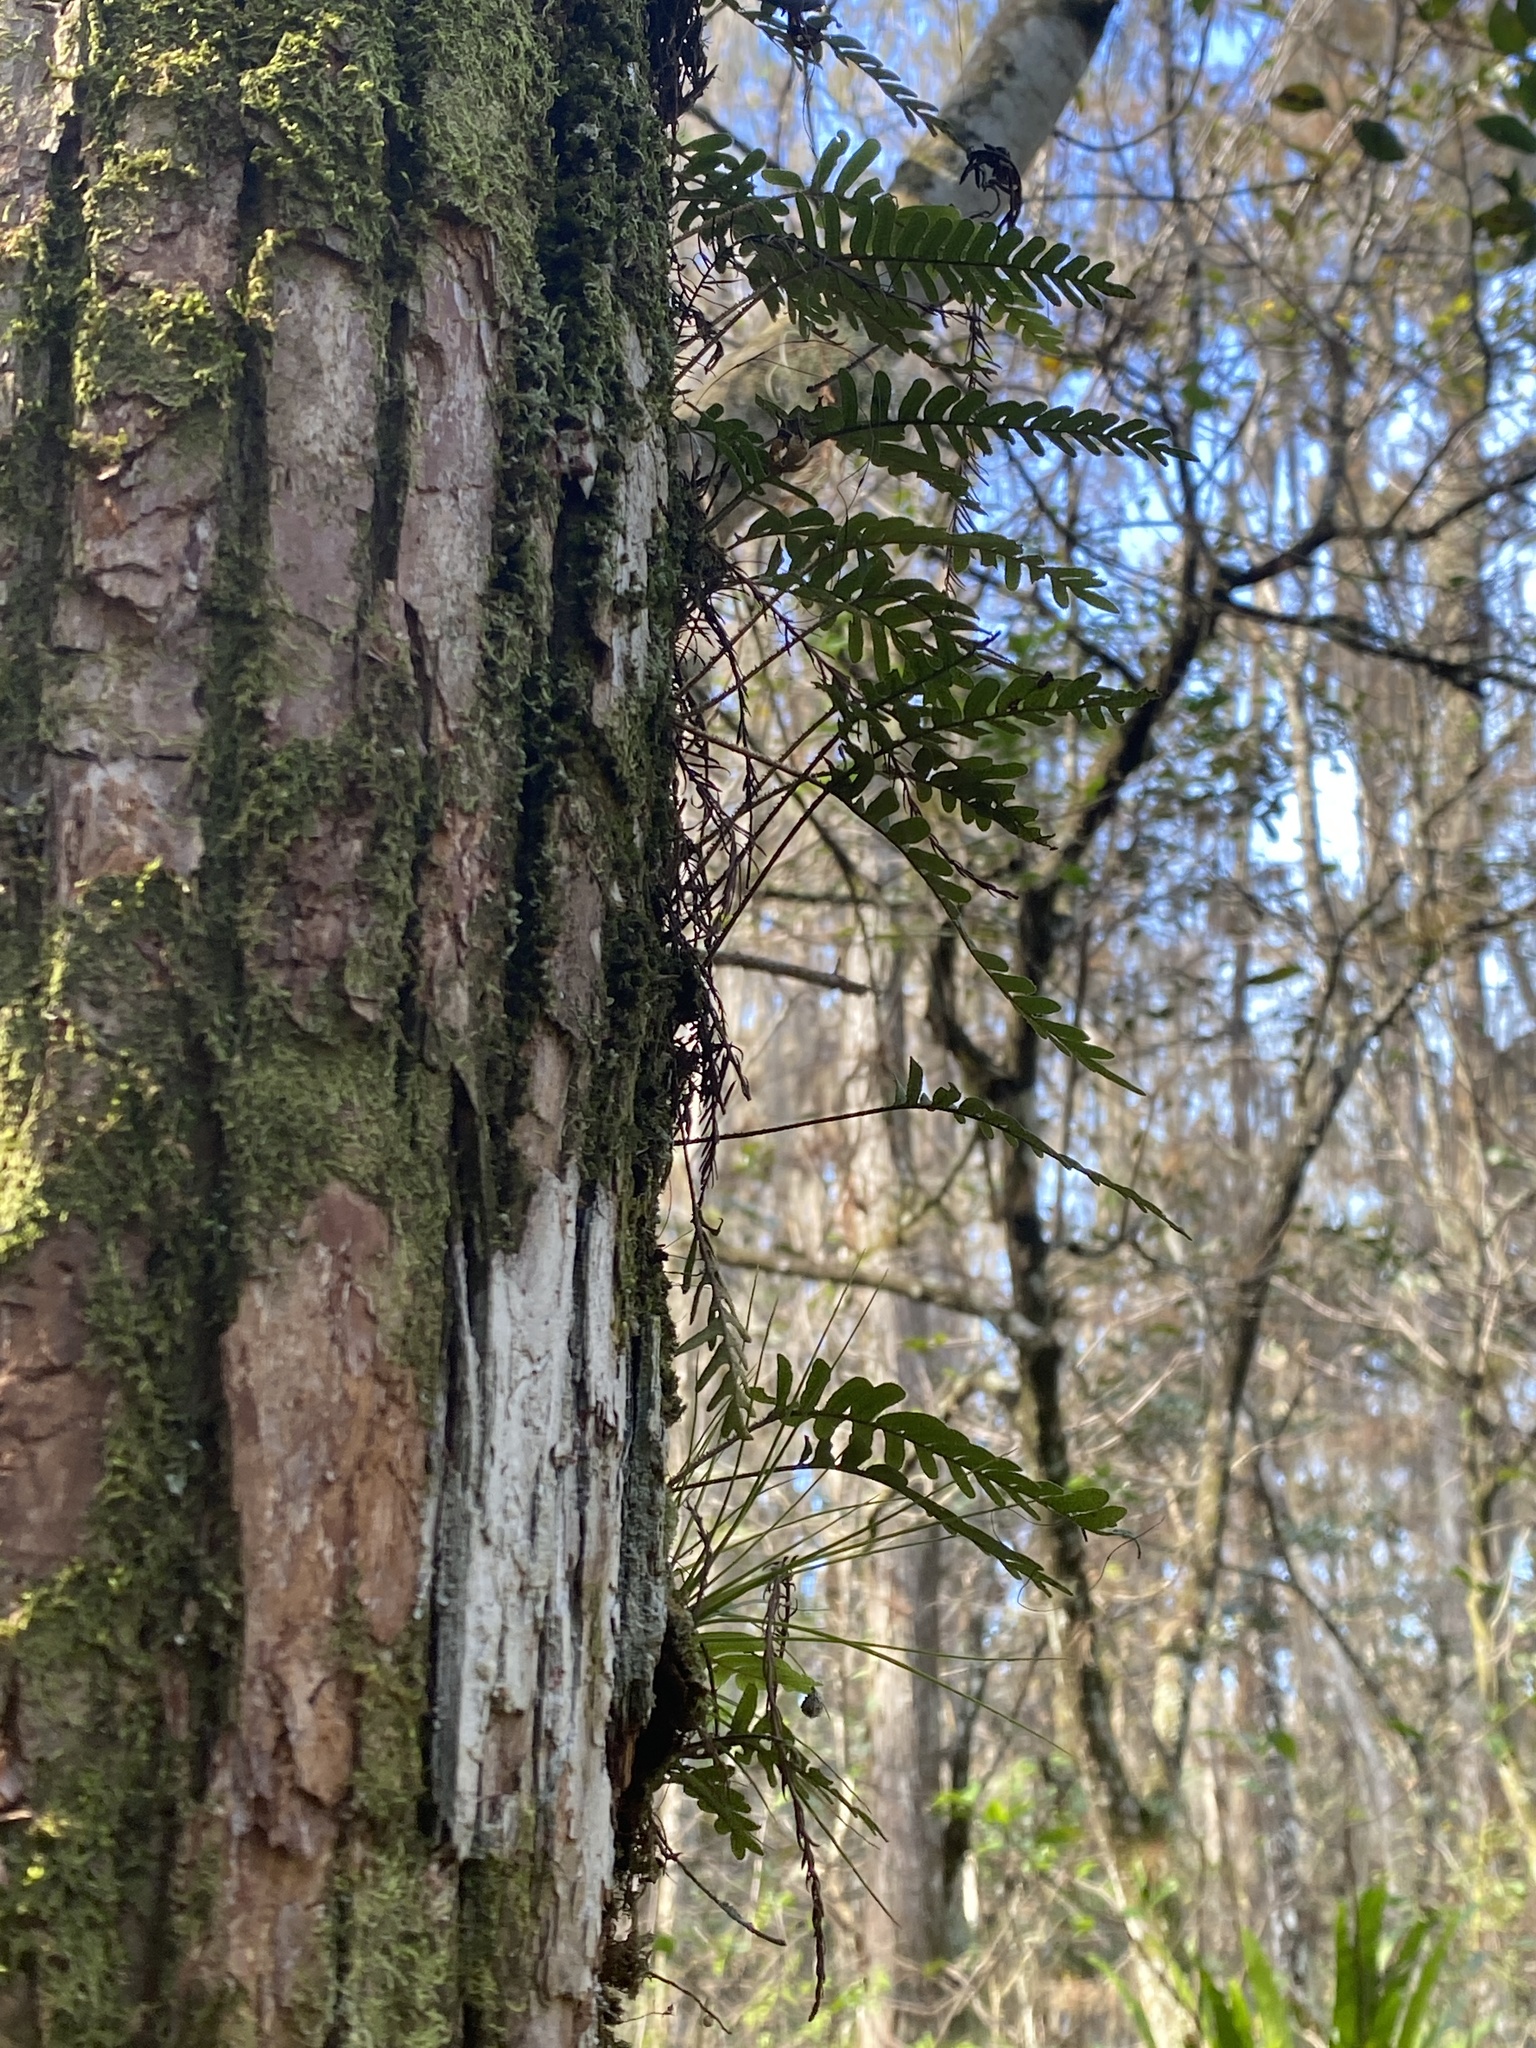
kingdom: Plantae
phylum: Tracheophyta
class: Polypodiopsida
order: Polypodiales
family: Polypodiaceae
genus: Pleopeltis
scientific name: Pleopeltis michauxiana
